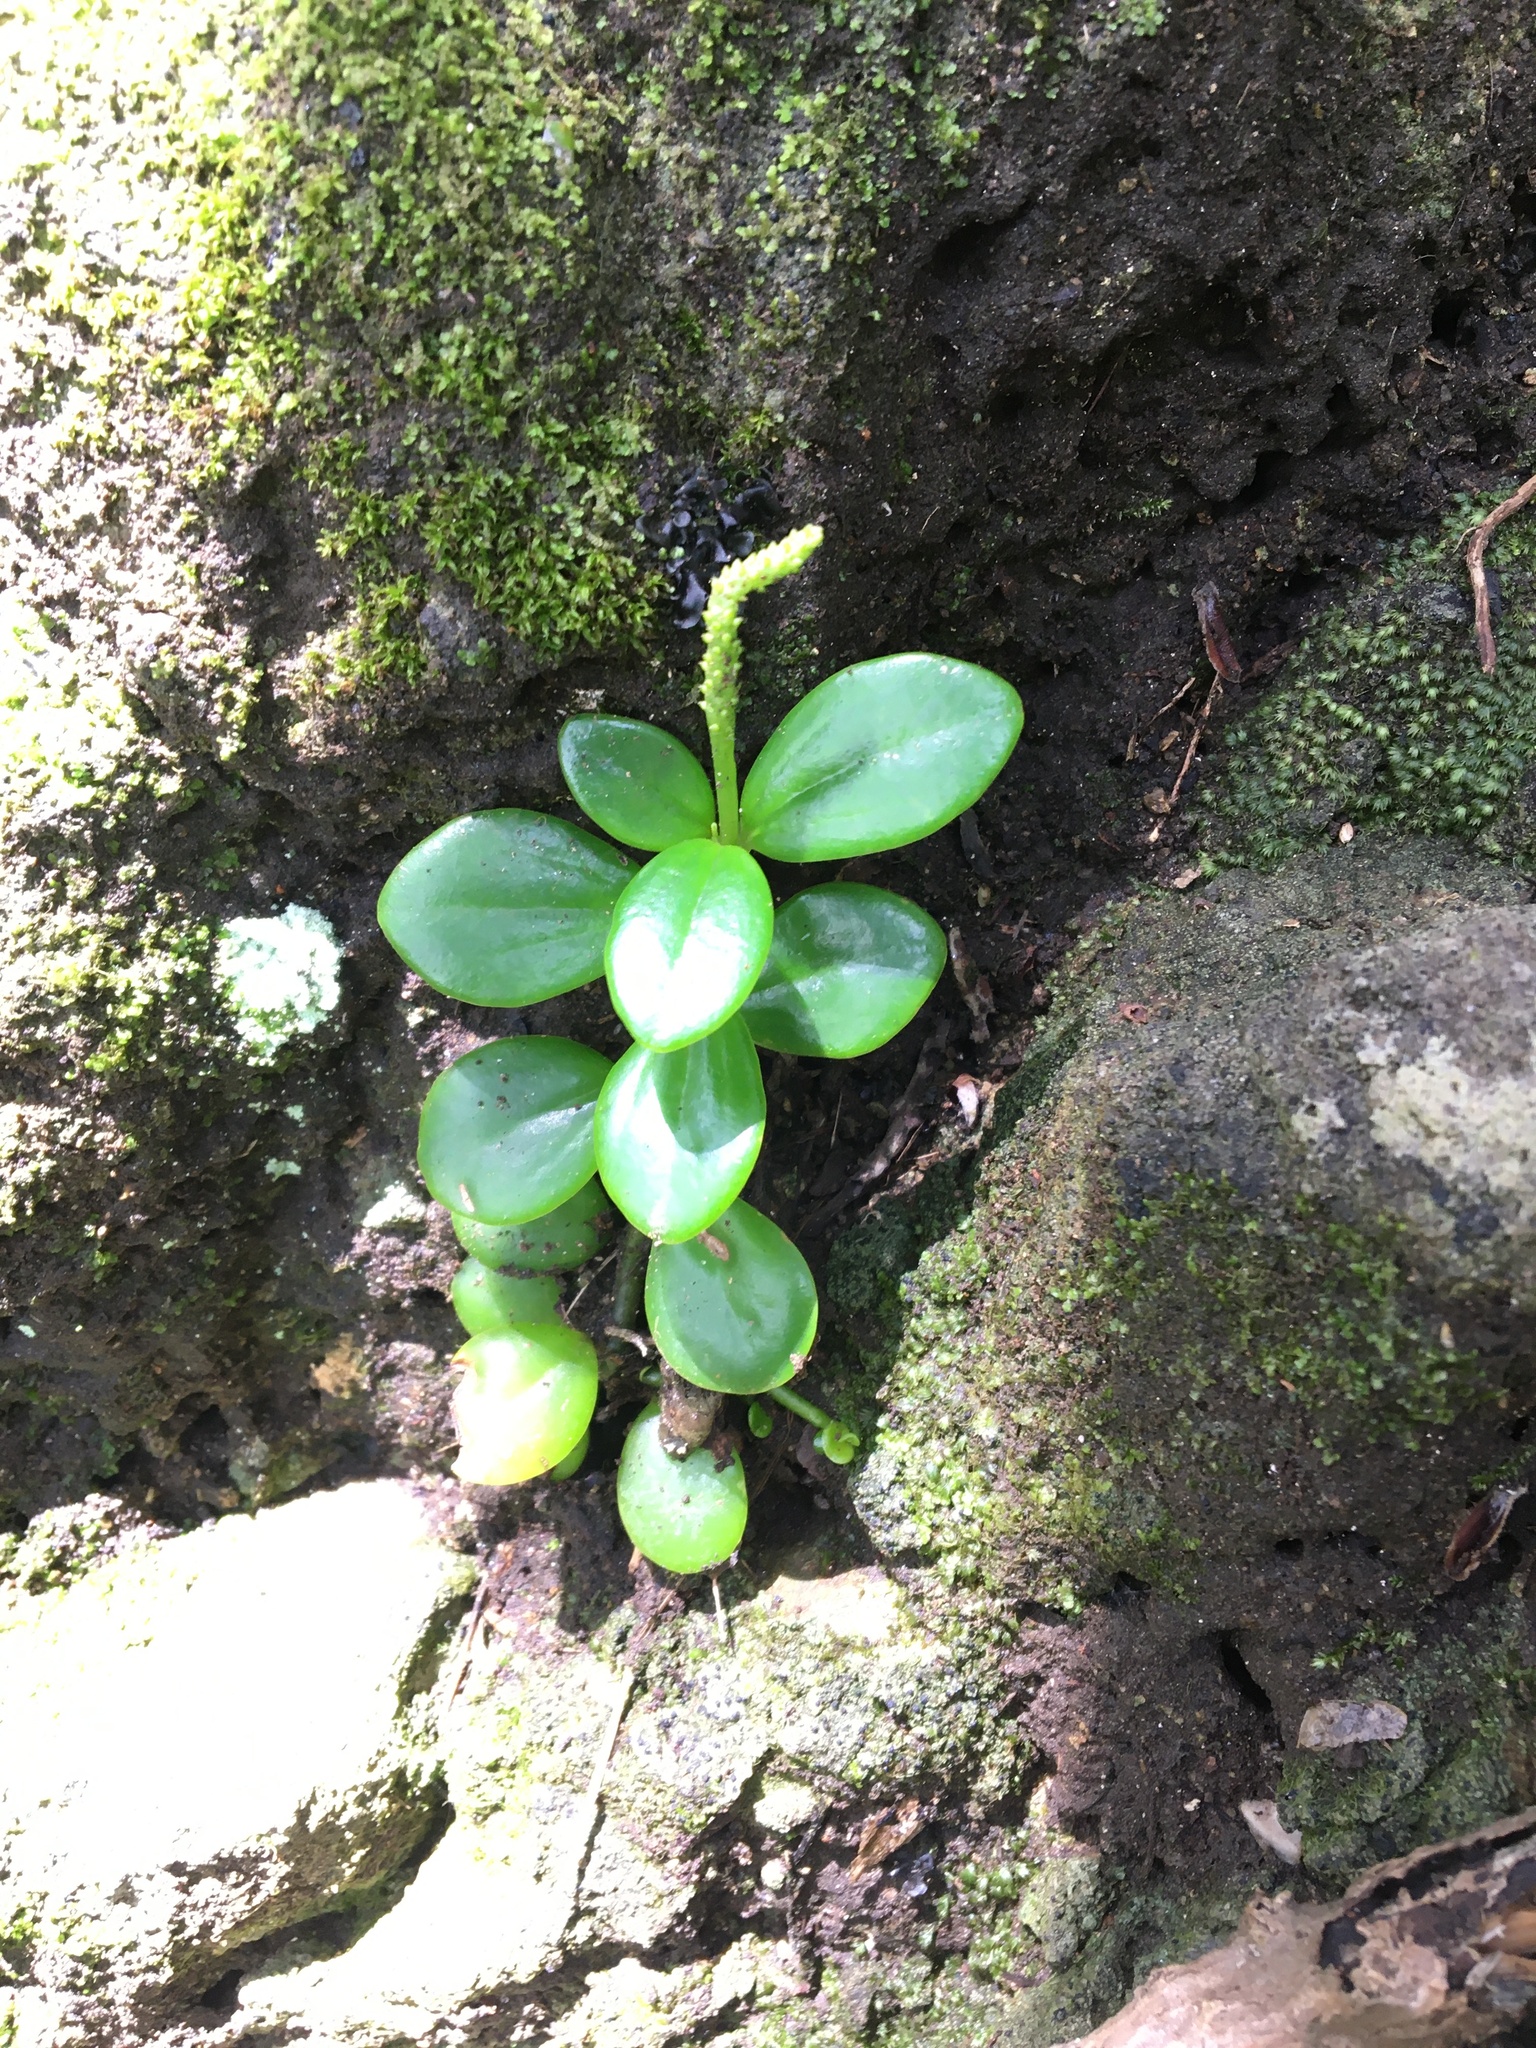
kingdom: Plantae
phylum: Tracheophyta
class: Magnoliopsida
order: Piperales
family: Piperaceae
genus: Peperomia
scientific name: Peperomia urvilleana
